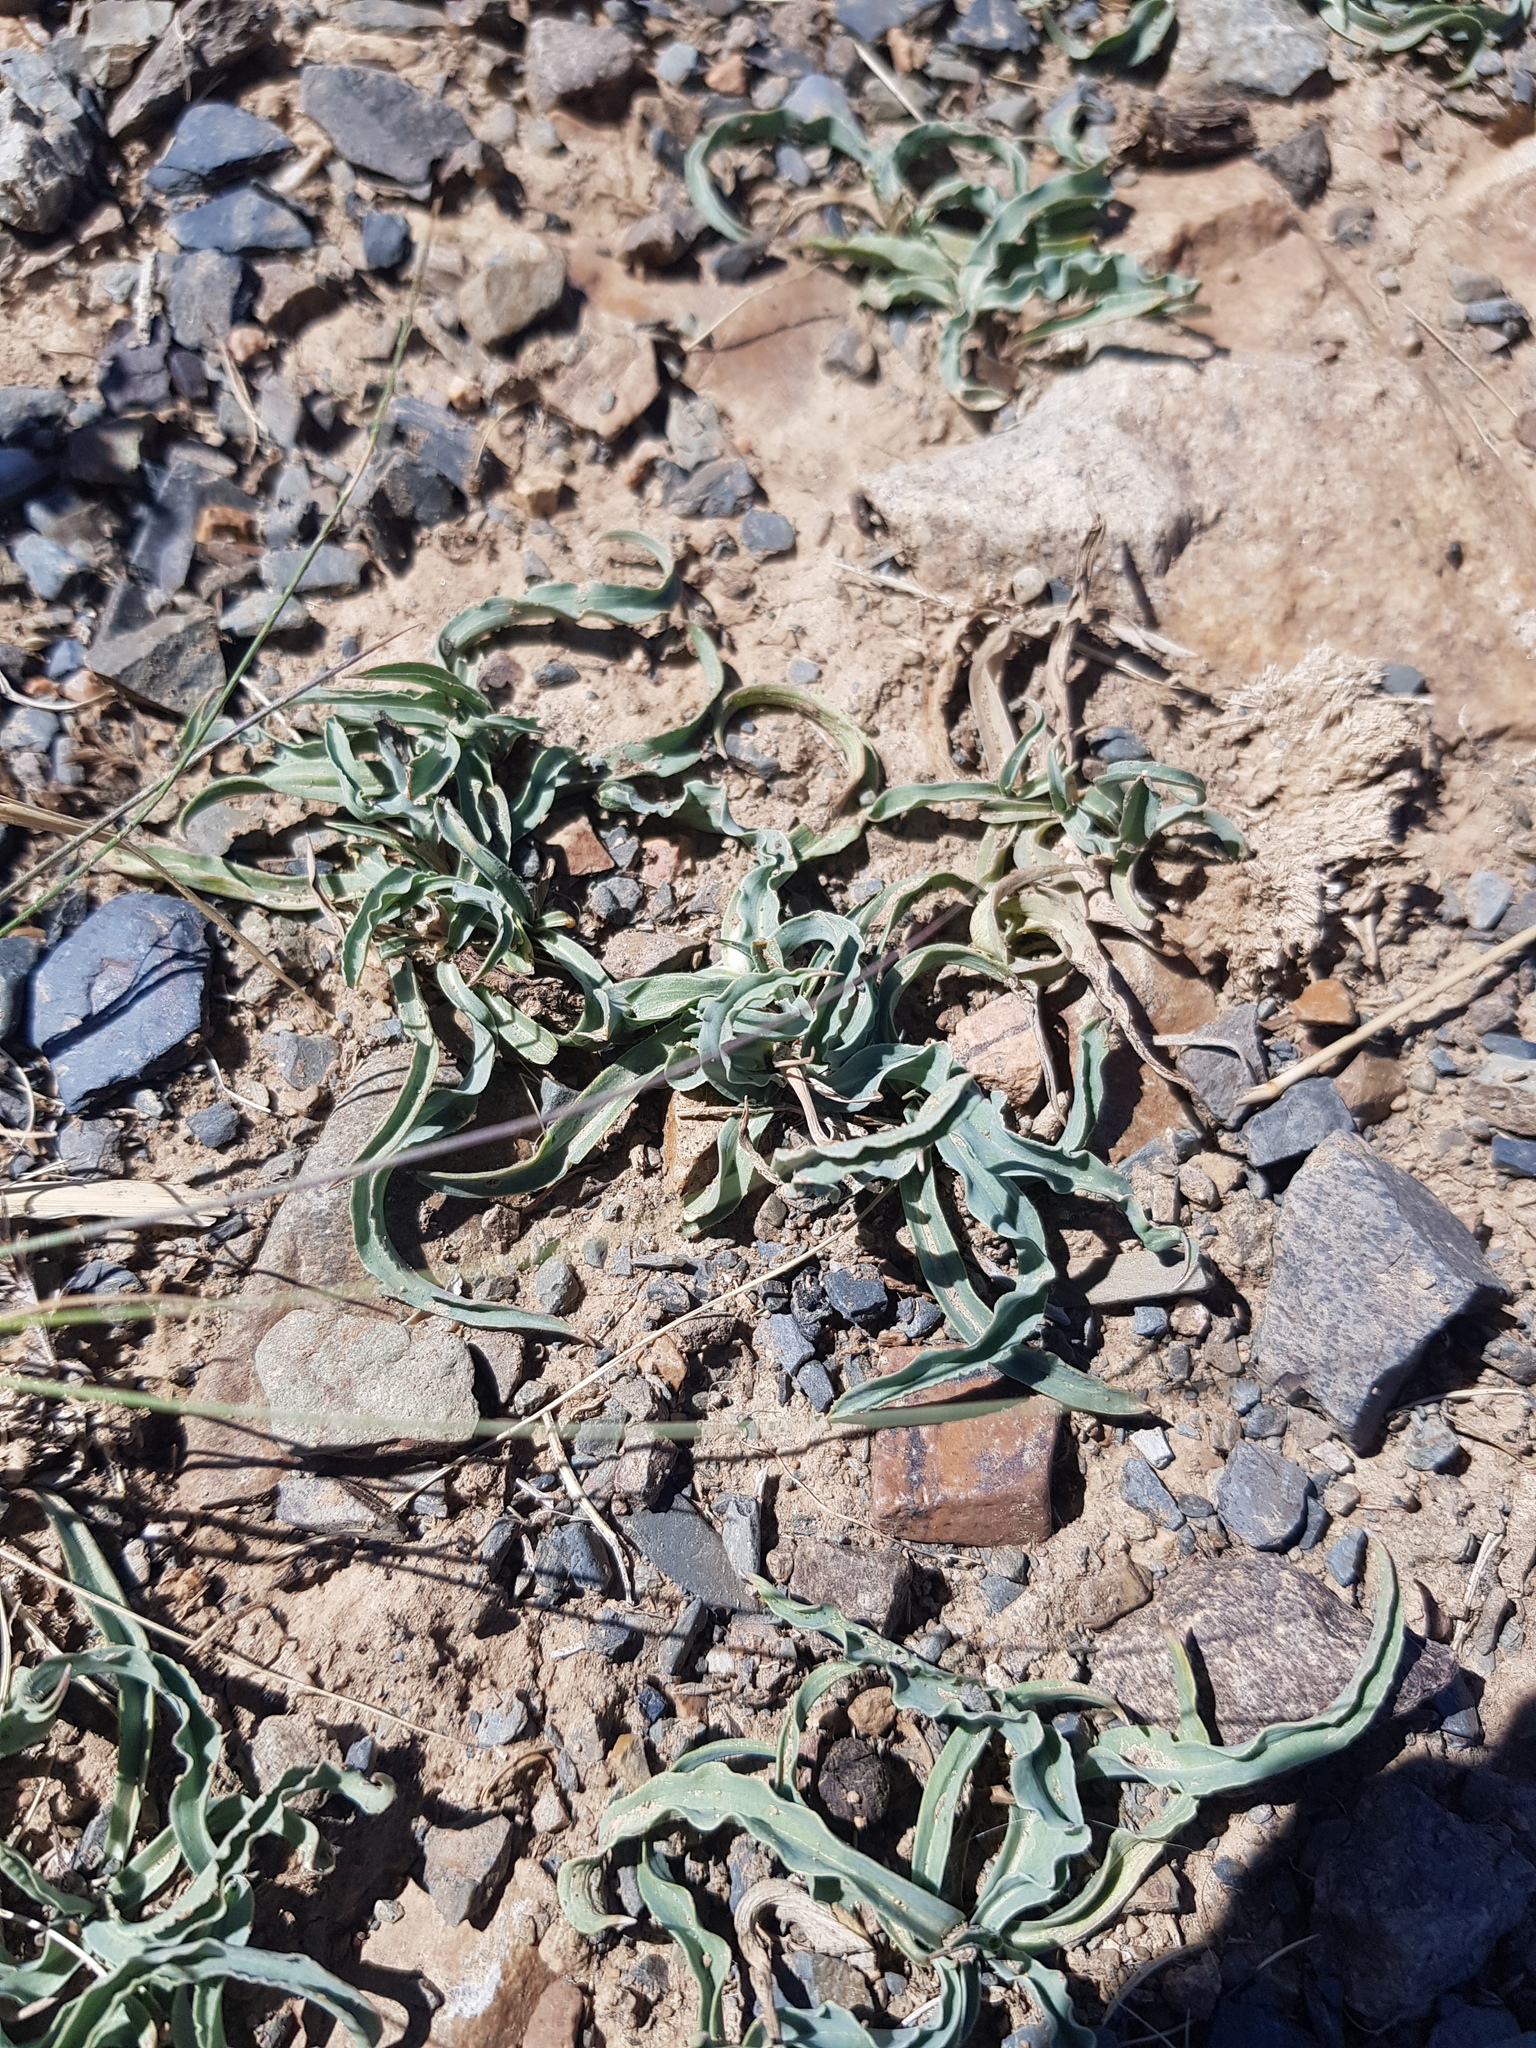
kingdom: Plantae
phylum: Tracheophyta
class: Magnoliopsida
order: Asterales
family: Asteraceae
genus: Takhtajaniantha
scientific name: Takhtajaniantha ikonnikovii
